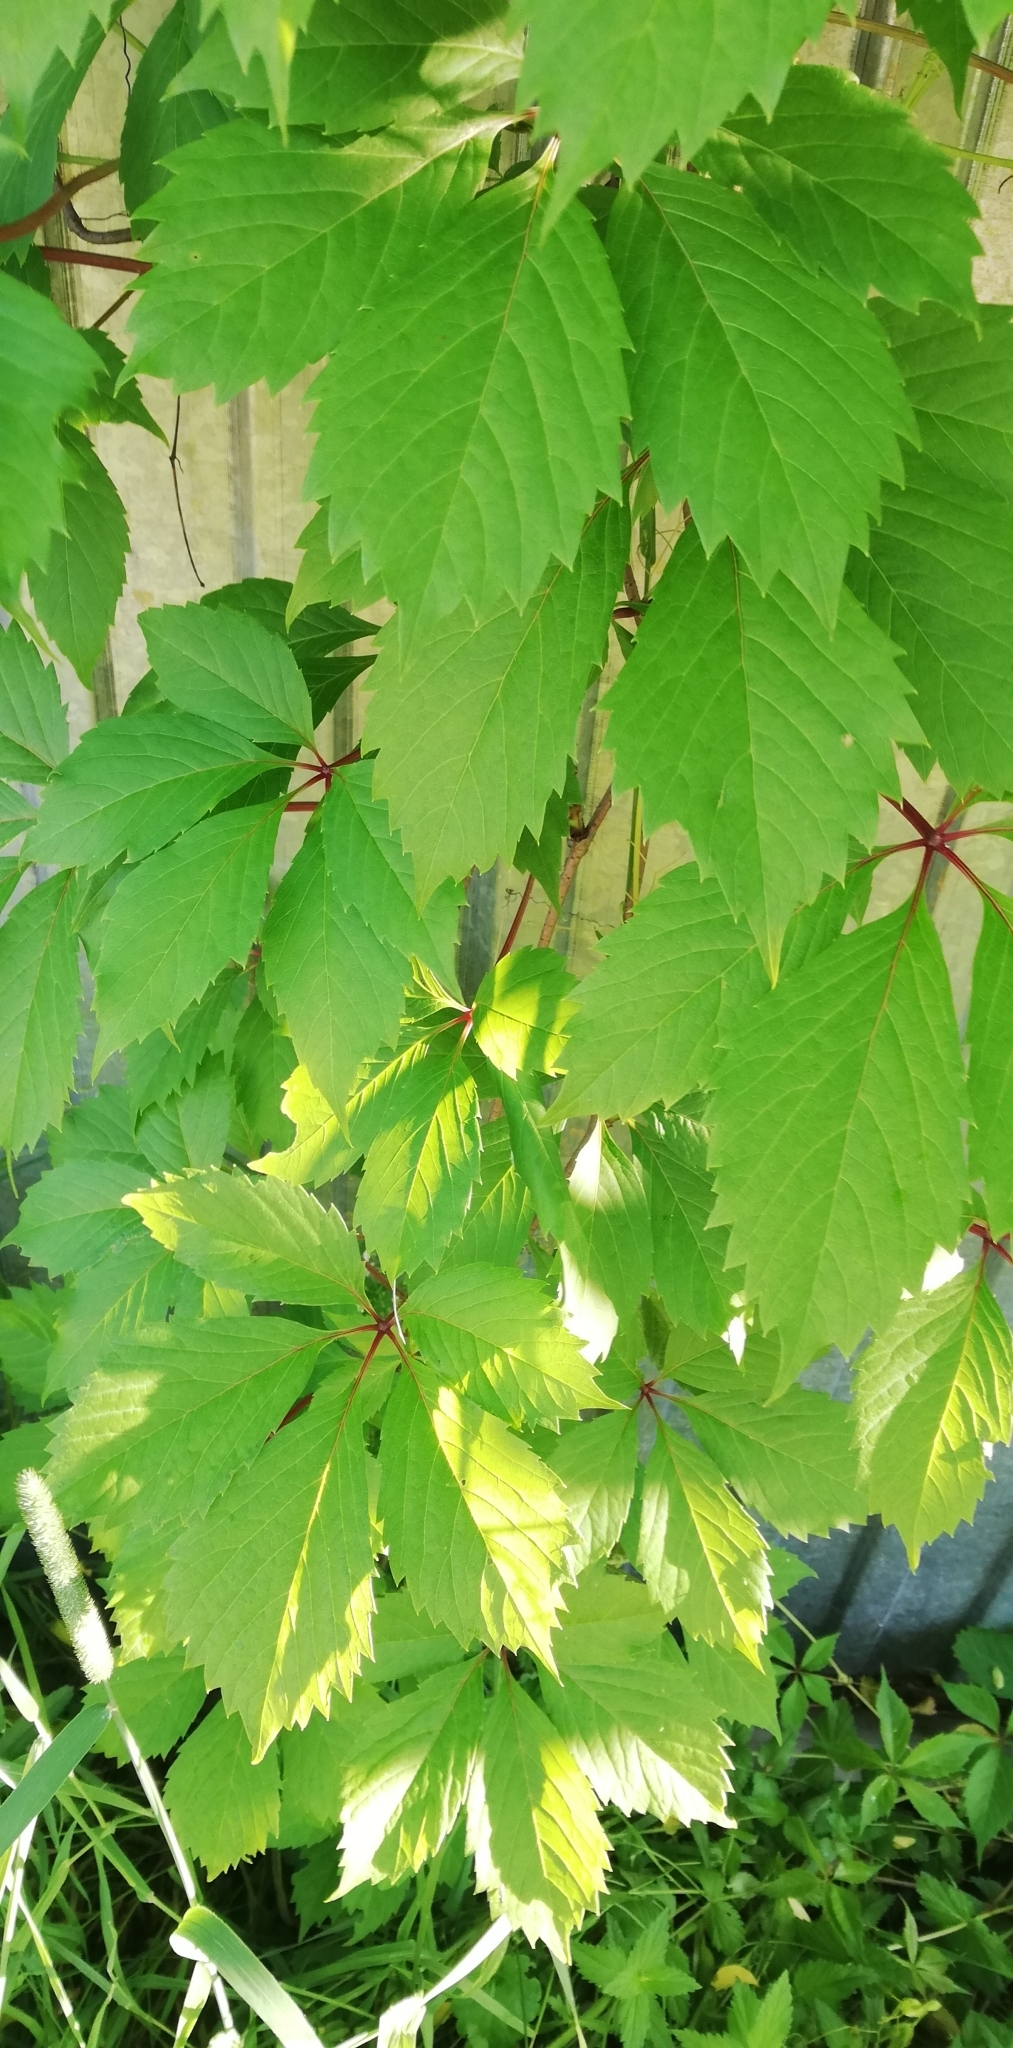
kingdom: Plantae
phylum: Tracheophyta
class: Magnoliopsida
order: Vitales
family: Vitaceae
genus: Parthenocissus
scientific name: Parthenocissus inserta
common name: False virginia-creeper
